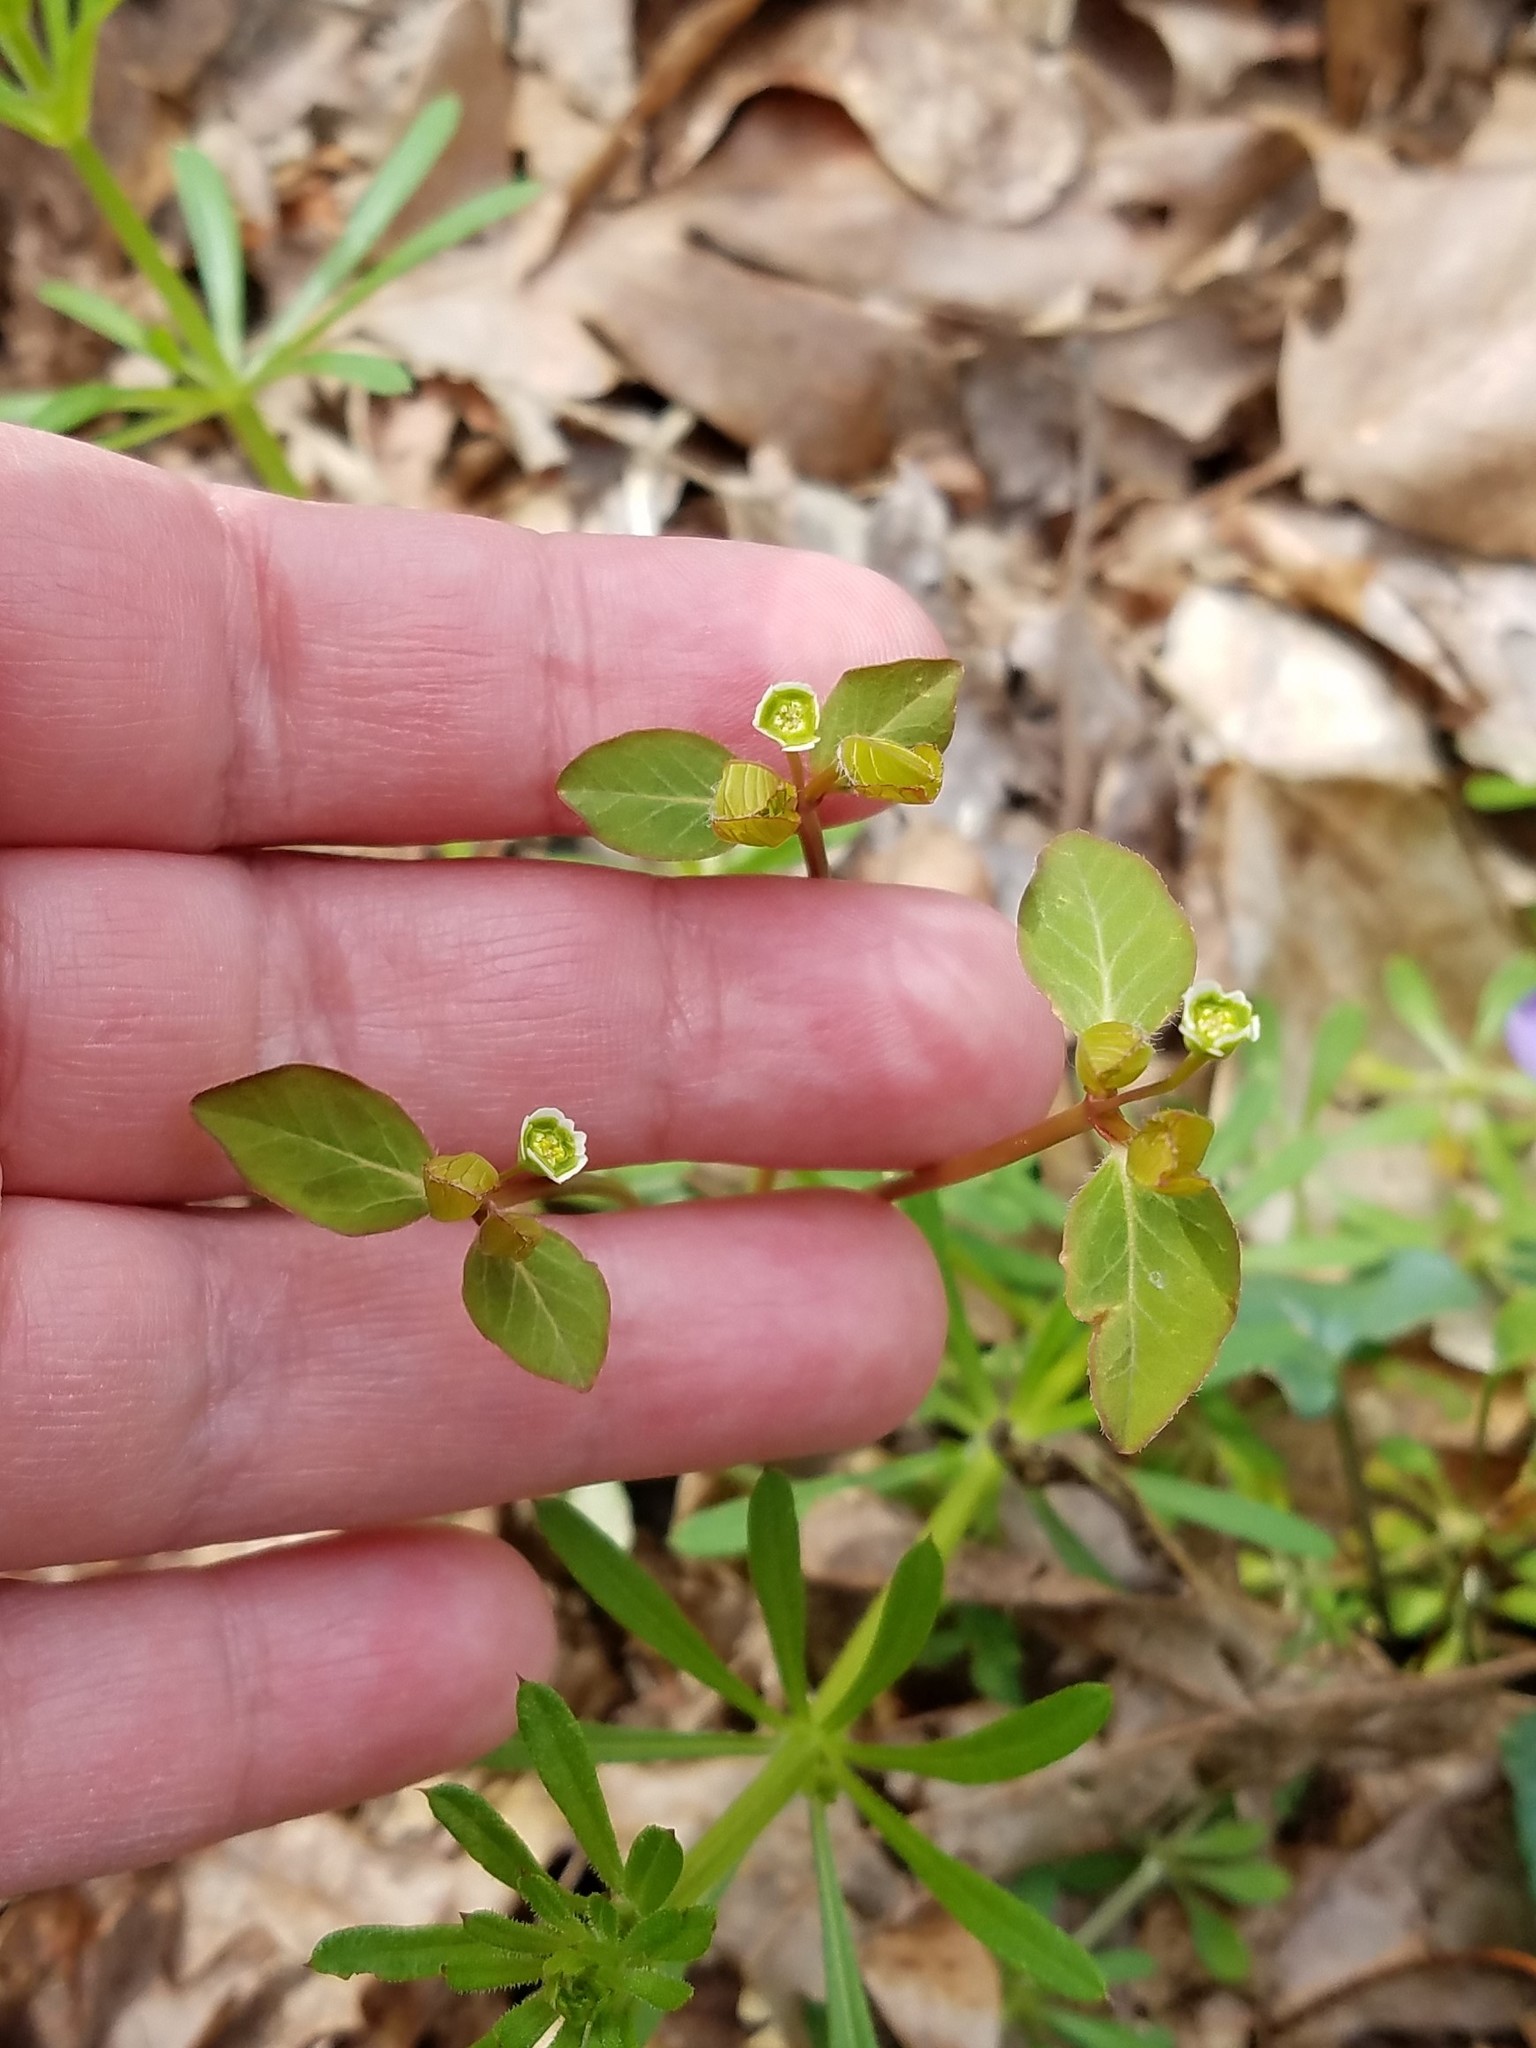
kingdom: Plantae
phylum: Tracheophyta
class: Magnoliopsida
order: Malpighiales
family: Euphorbiaceae
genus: Euphorbia
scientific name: Euphorbia mercurialina
